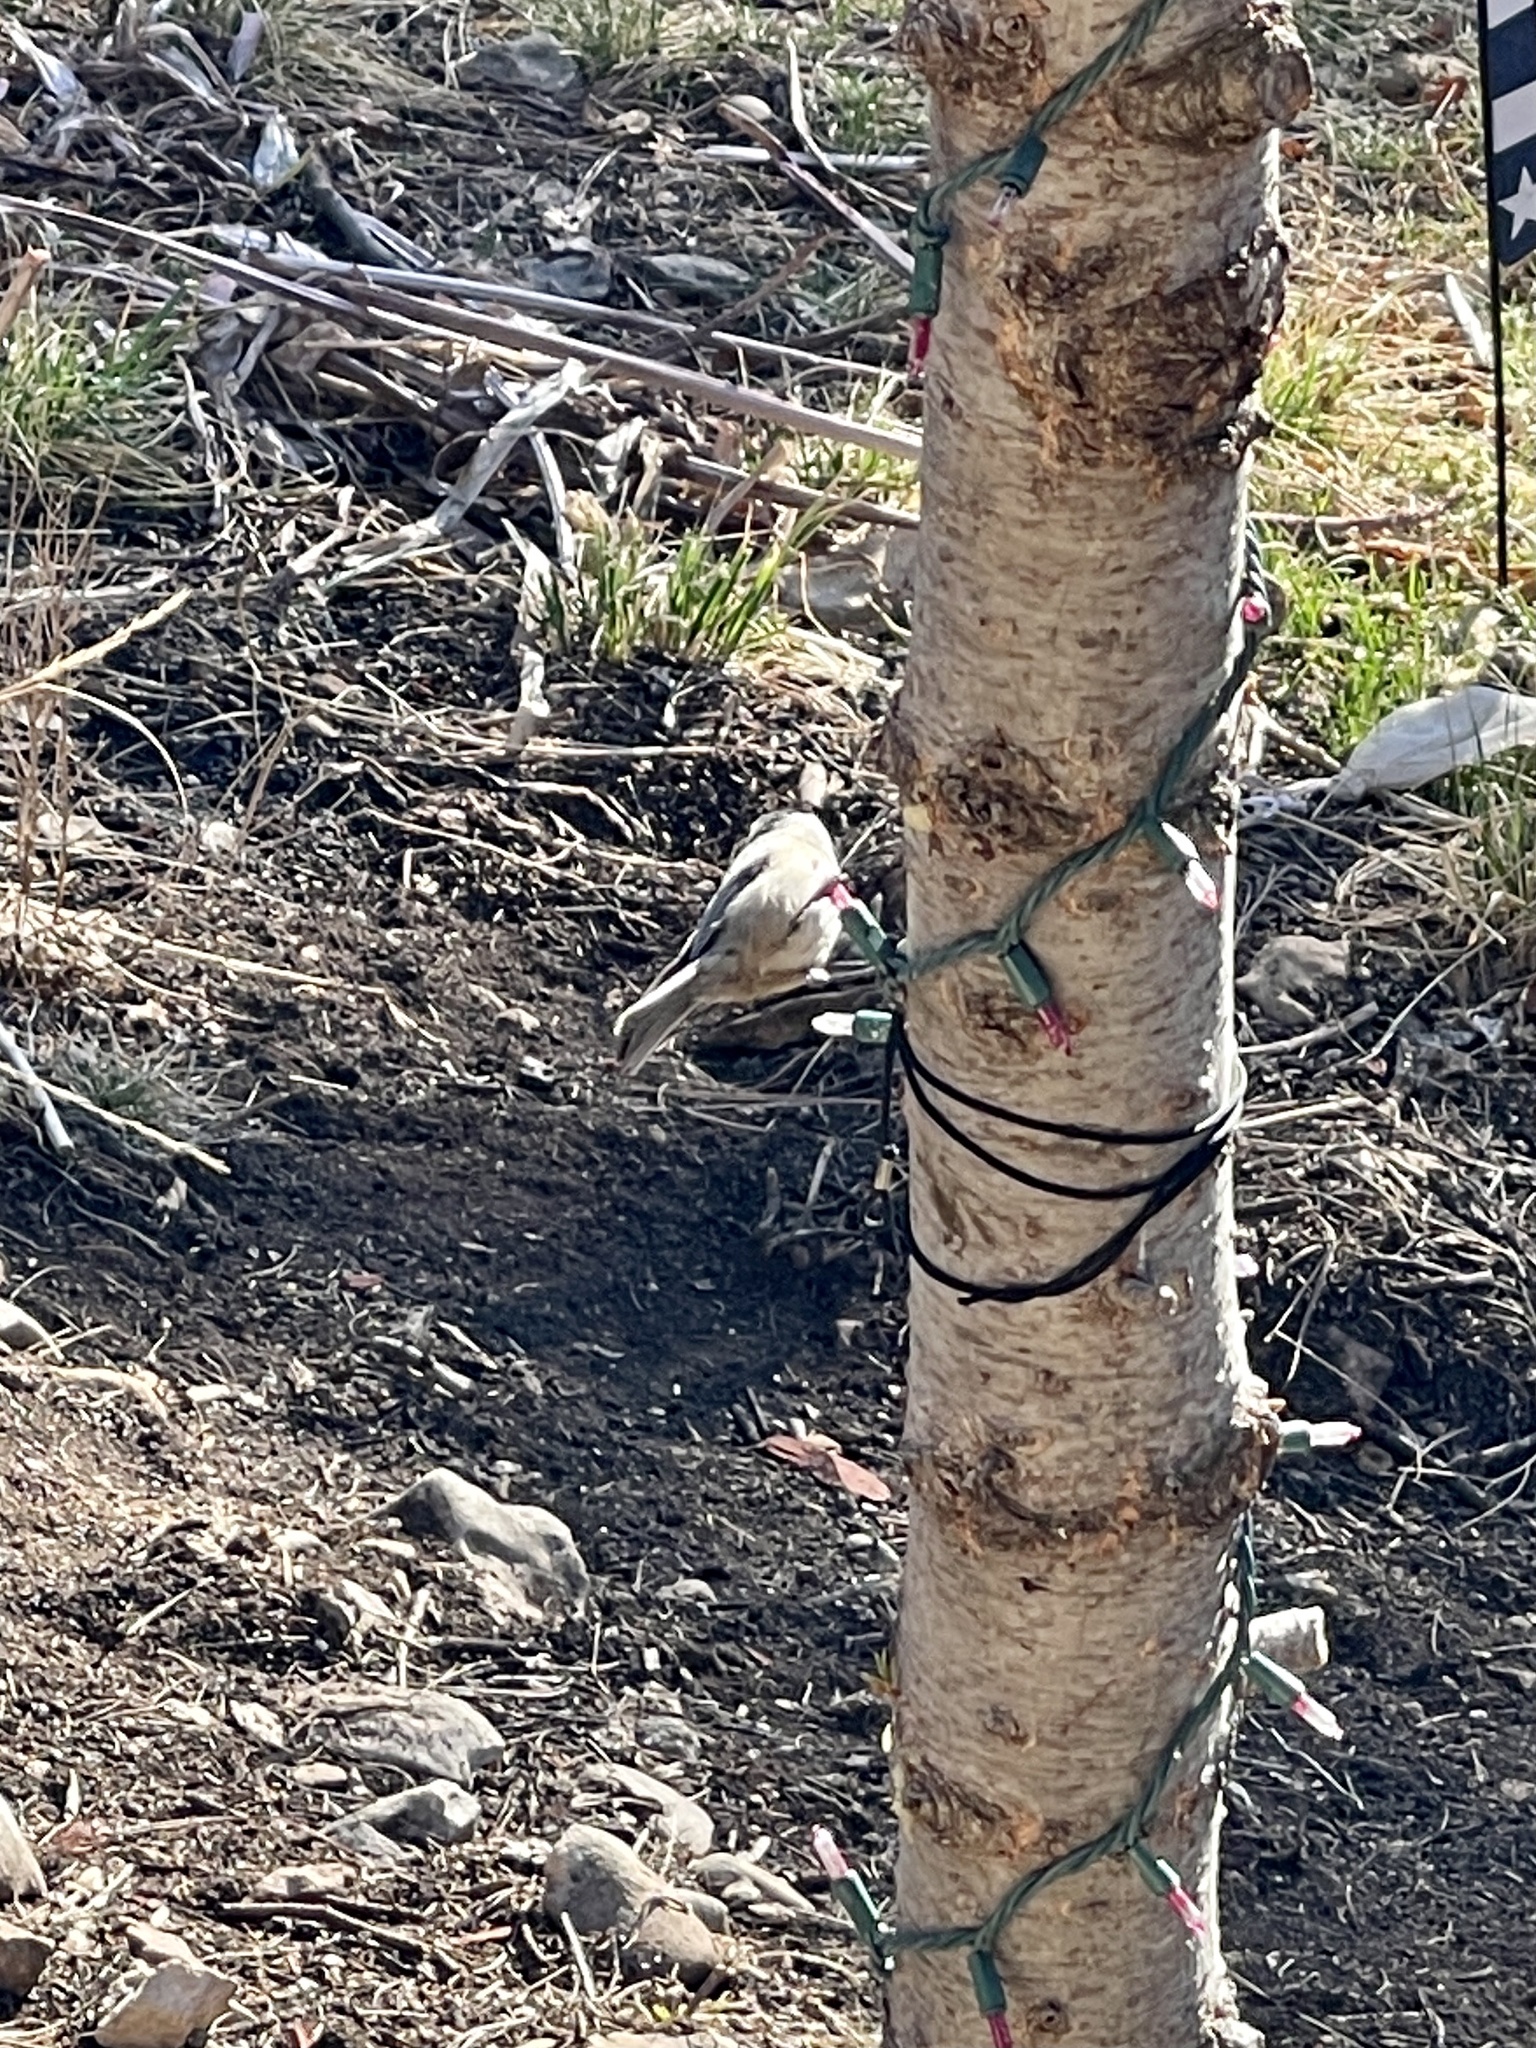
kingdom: Animalia
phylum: Chordata
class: Aves
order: Passeriformes
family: Paridae
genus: Poecile
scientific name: Poecile gambeli
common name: Mountain chickadee
